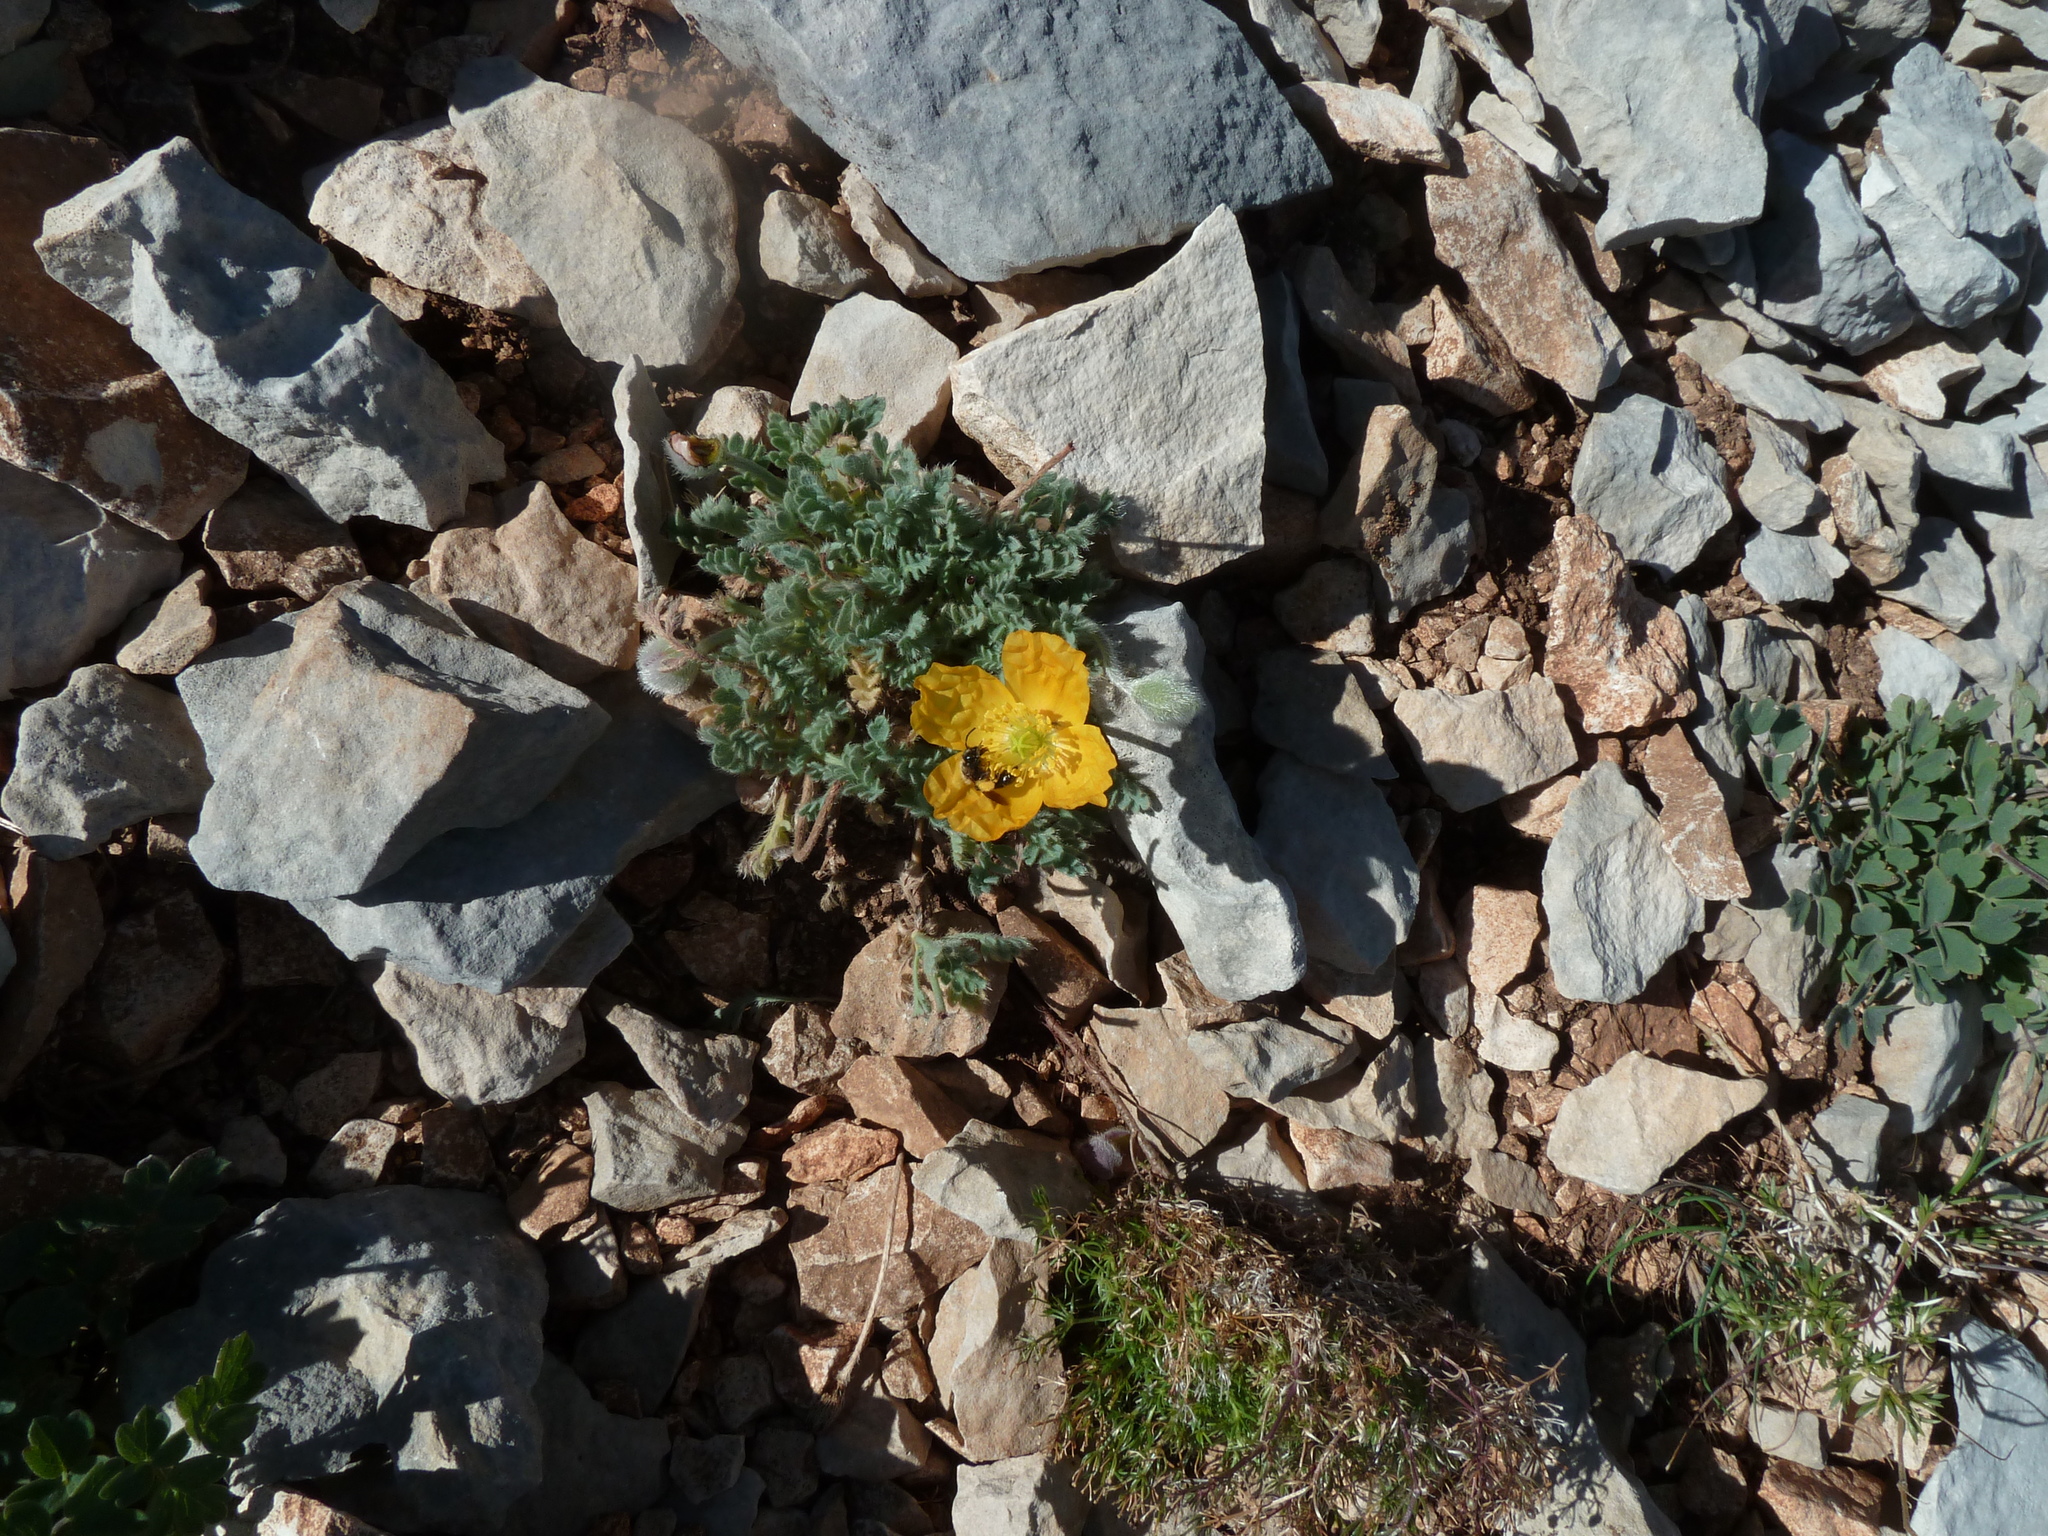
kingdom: Plantae
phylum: Tracheophyta
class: Magnoliopsida
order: Ranunculales
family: Papaveraceae
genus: Papaver
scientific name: Papaver alpinum
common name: Austrian poppy
